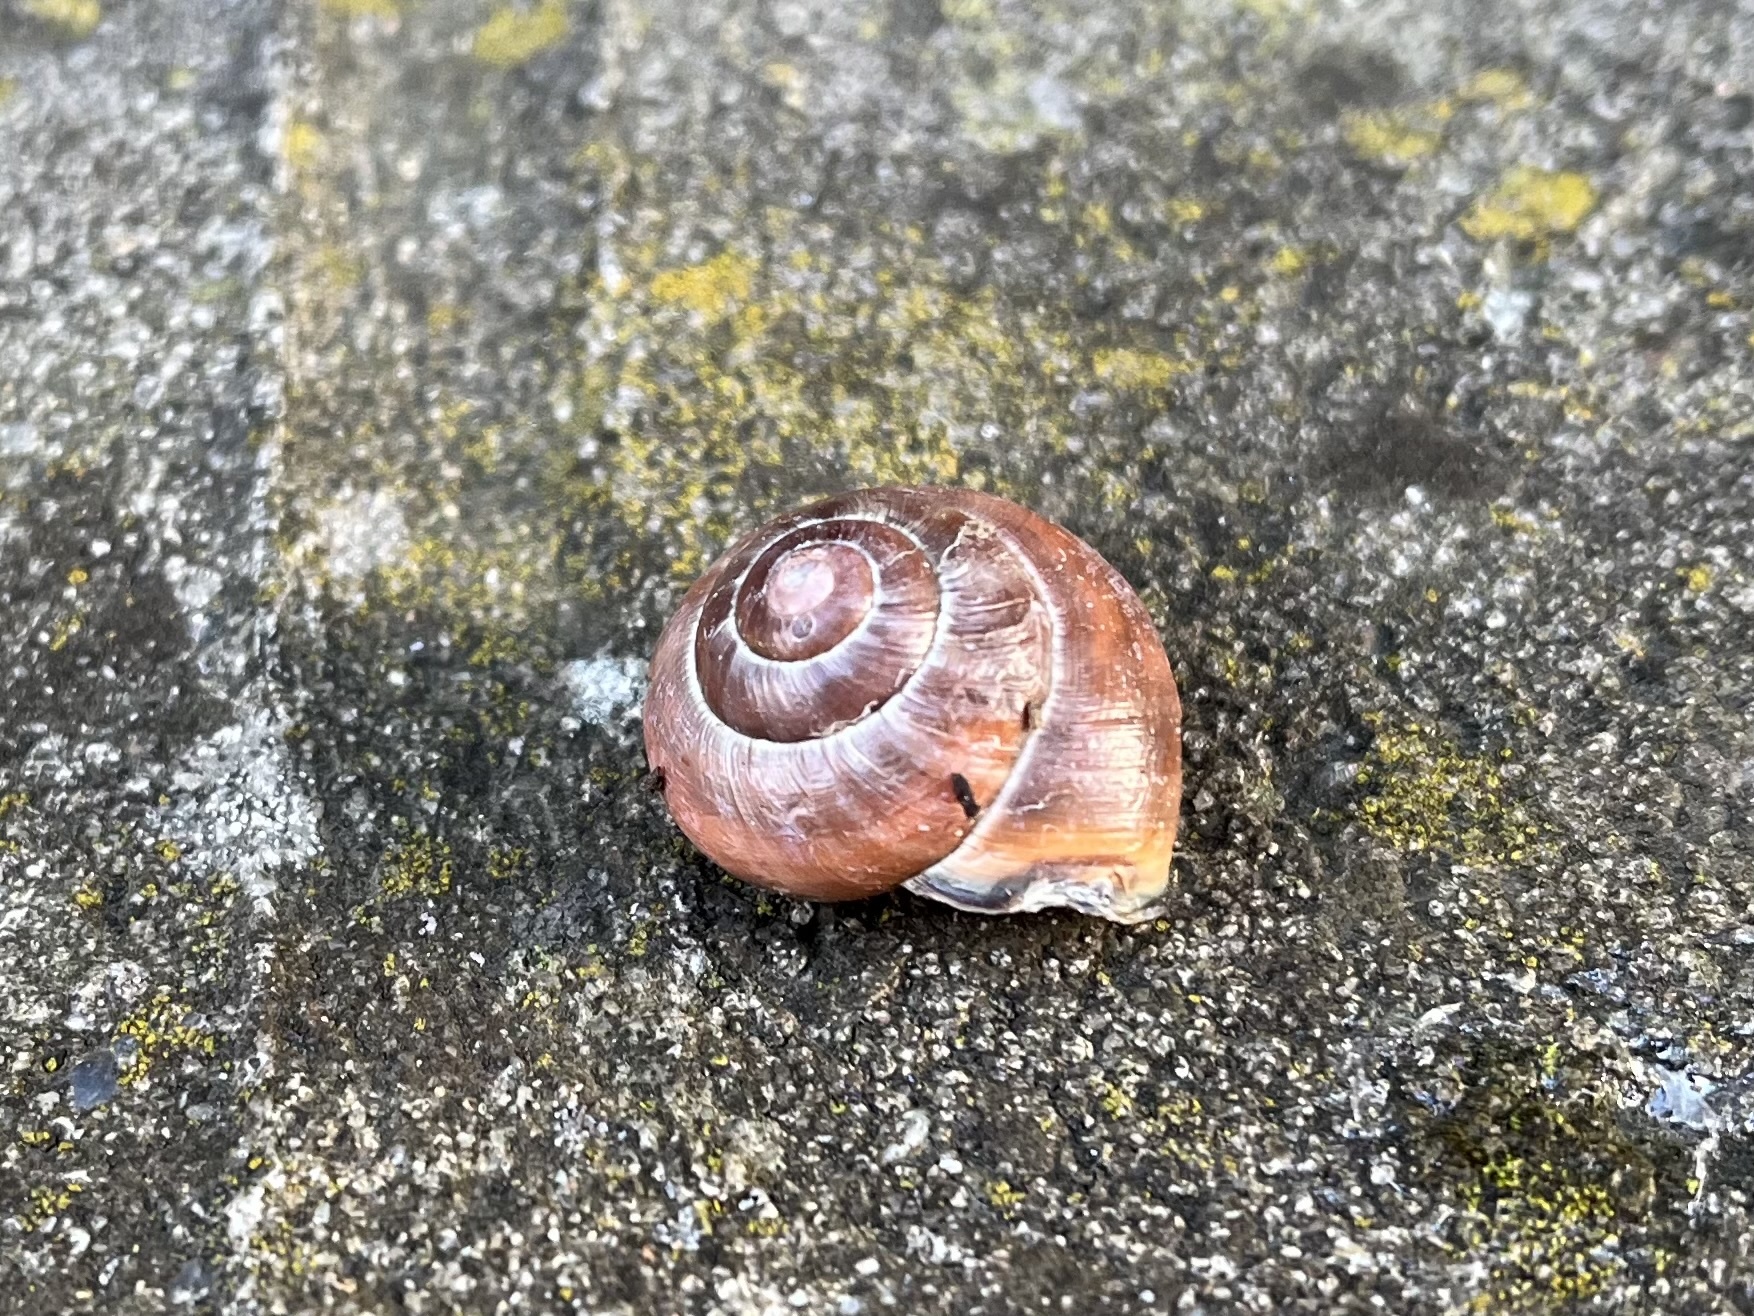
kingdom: Animalia
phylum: Mollusca
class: Gastropoda
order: Stylommatophora
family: Helicidae
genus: Cepaea
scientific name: Cepaea nemoralis
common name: Grovesnail
